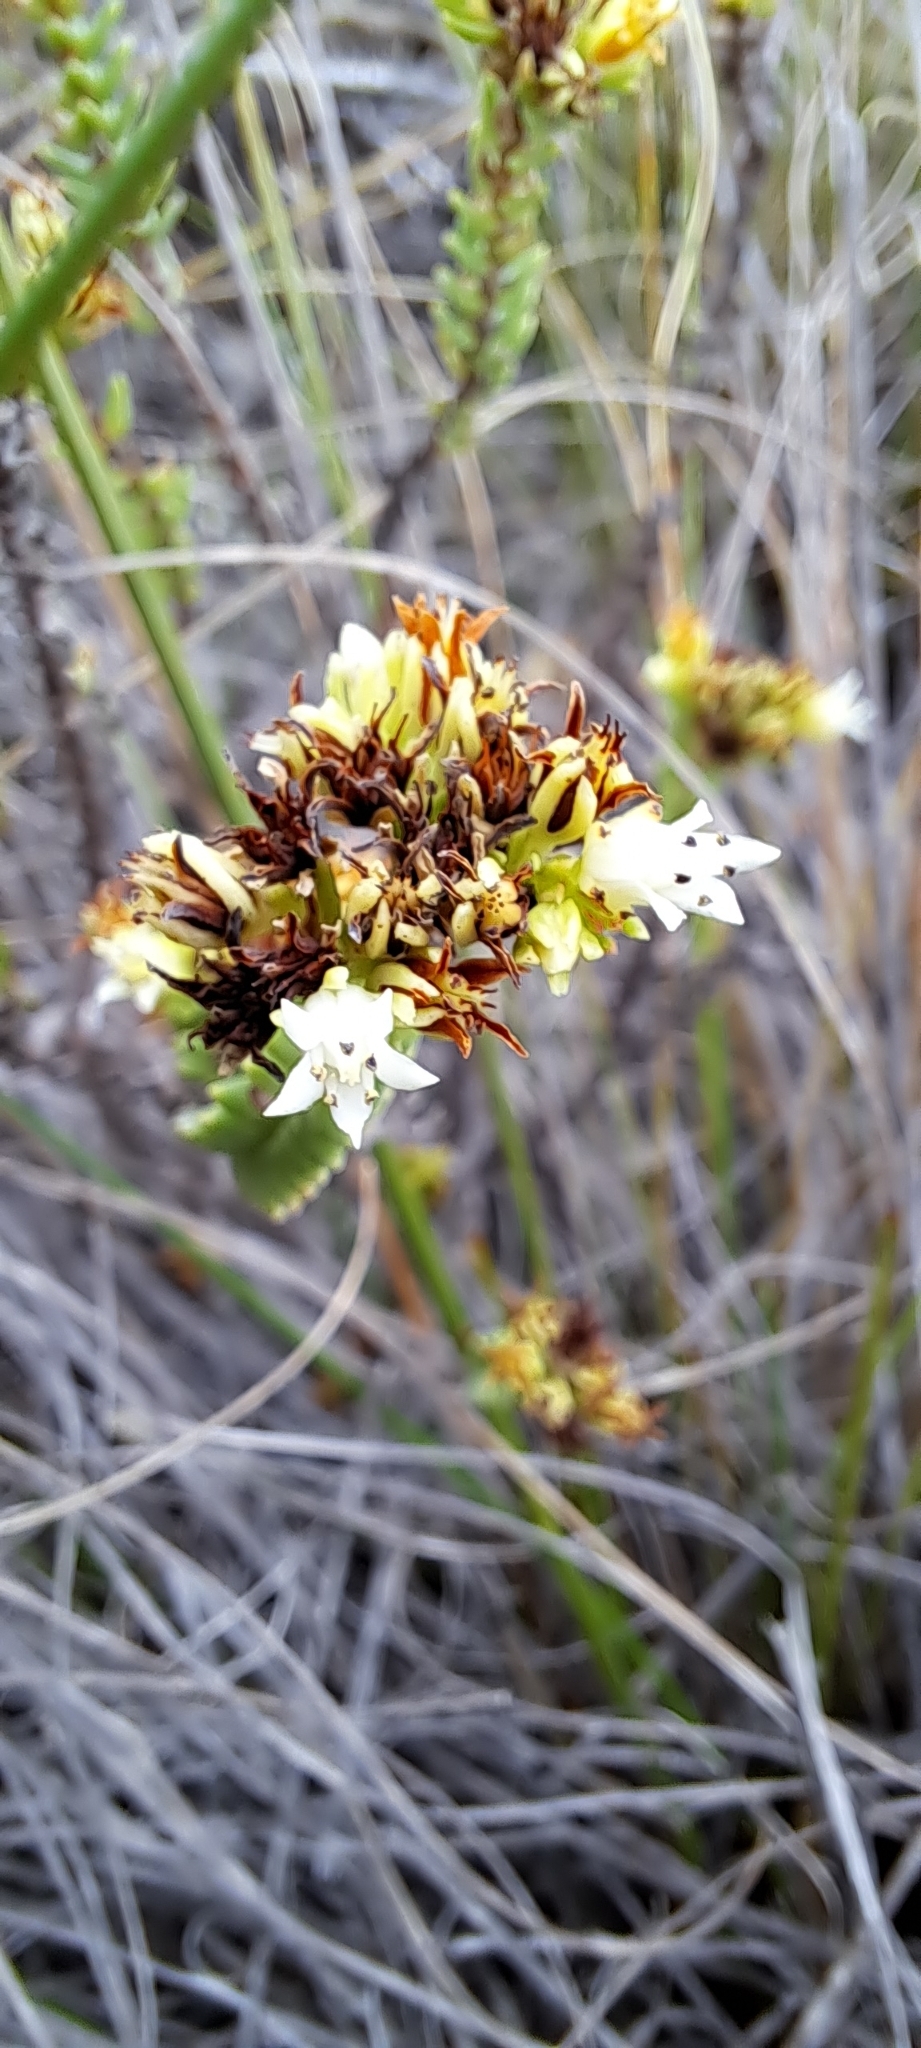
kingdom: Plantae
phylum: Tracheophyta
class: Magnoliopsida
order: Saxifragales
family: Crassulaceae
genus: Crassula
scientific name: Crassula ericoides
